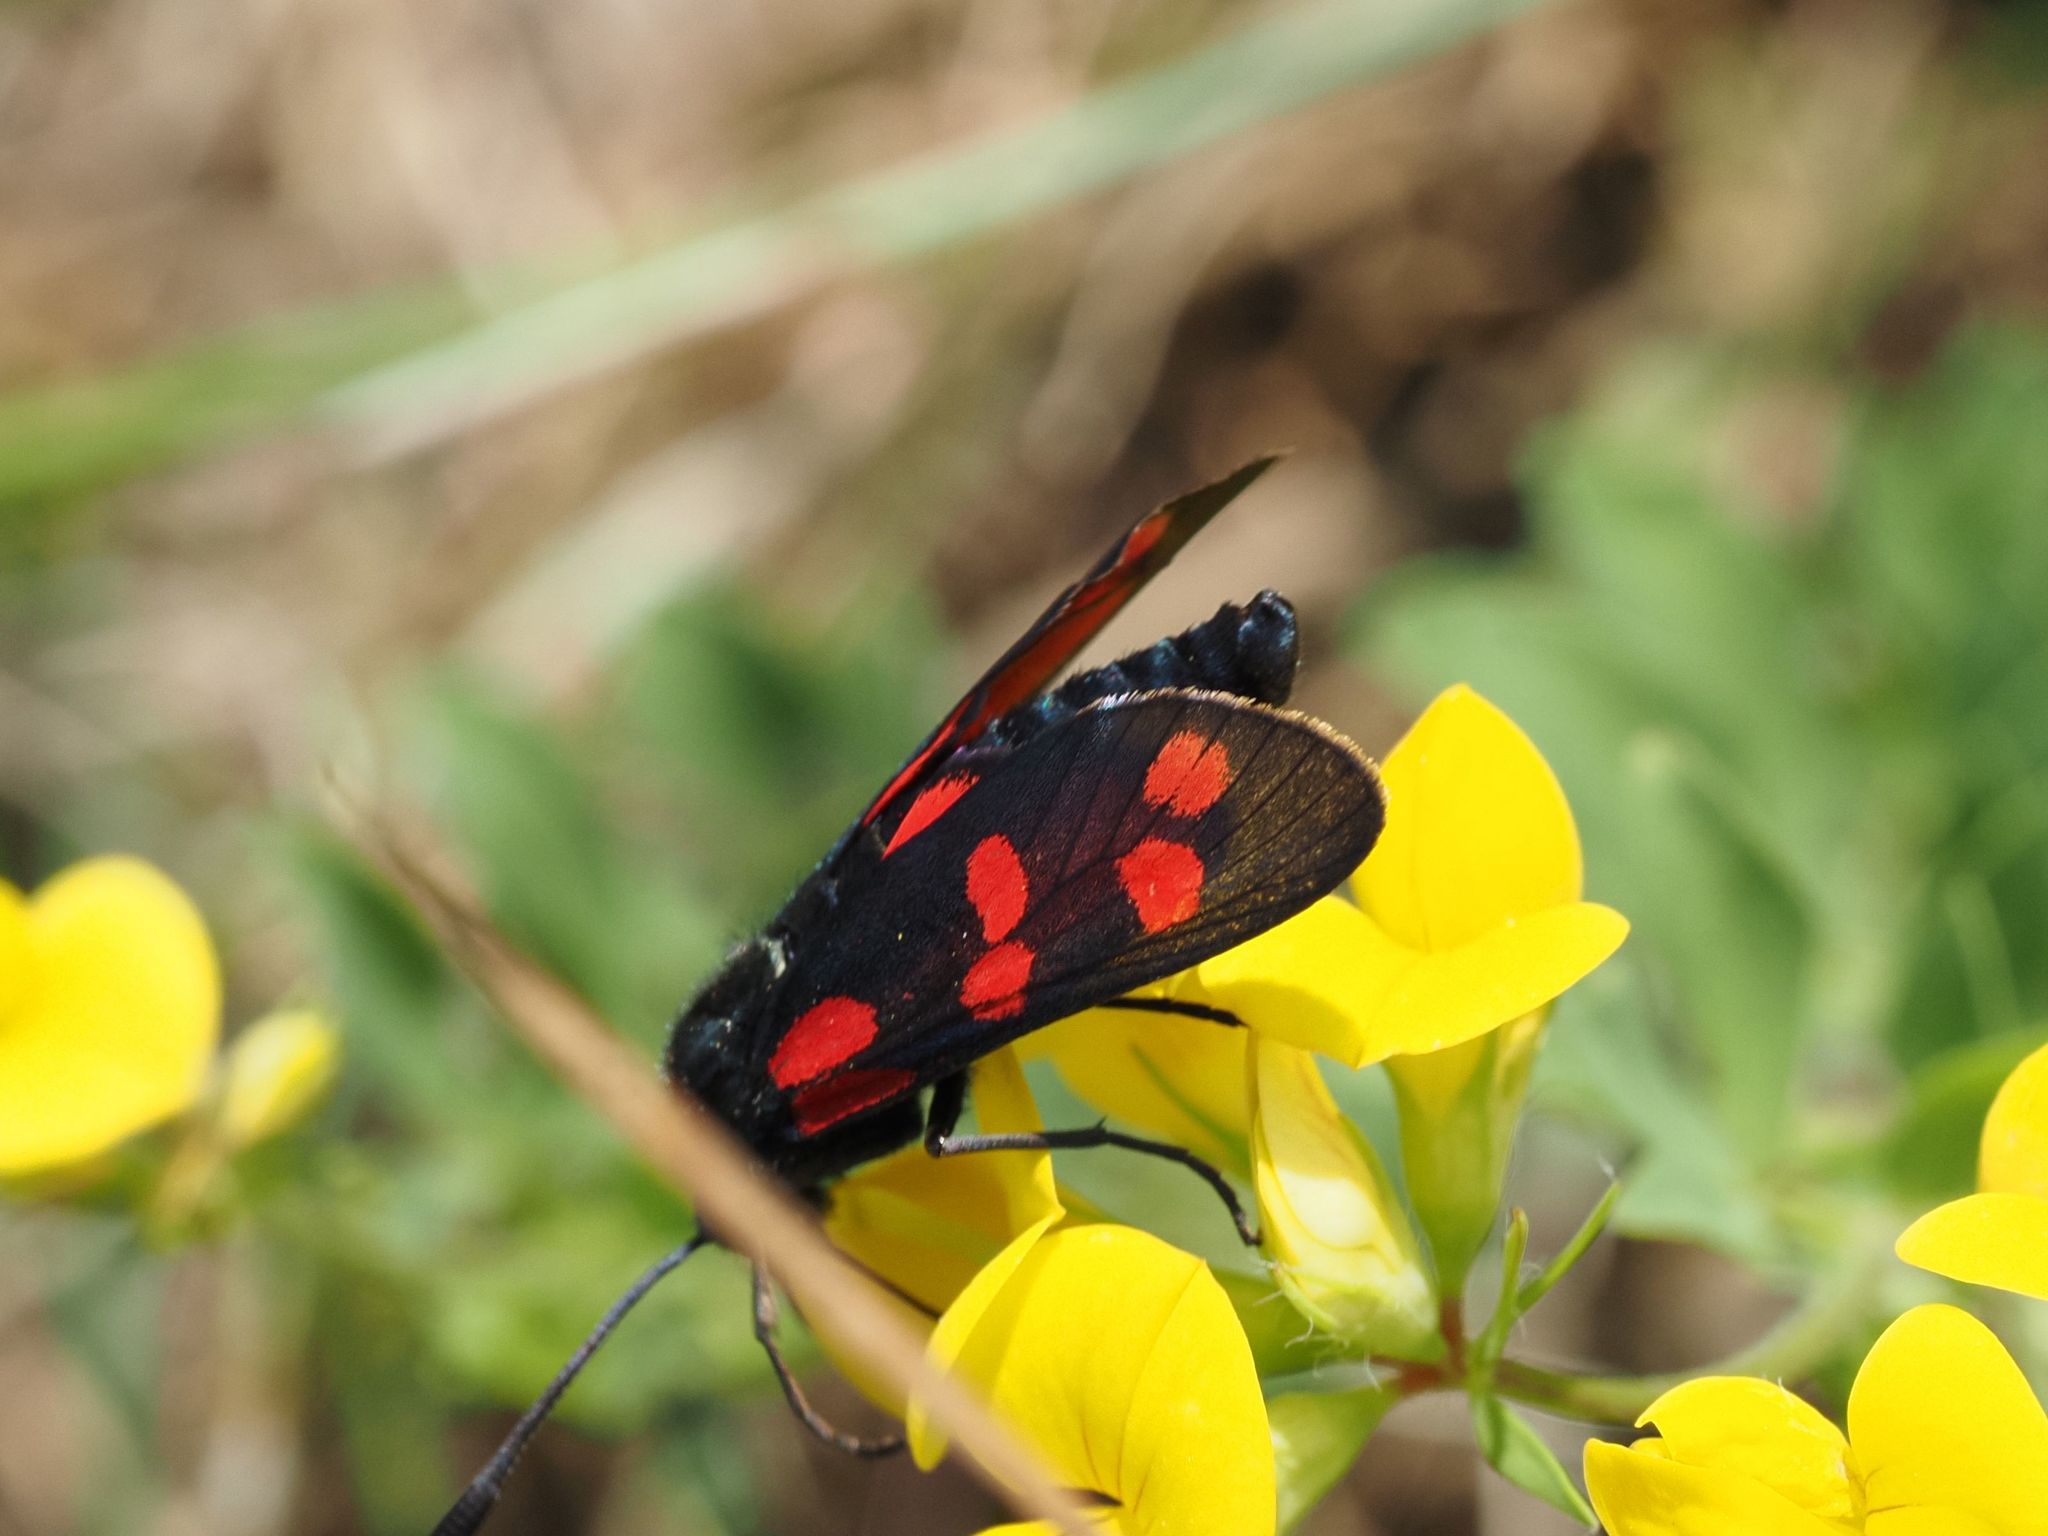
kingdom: Animalia
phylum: Arthropoda
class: Insecta
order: Lepidoptera
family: Zygaenidae
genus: Zygaena
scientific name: Zygaena filipendulae
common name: Six-spot burnet
